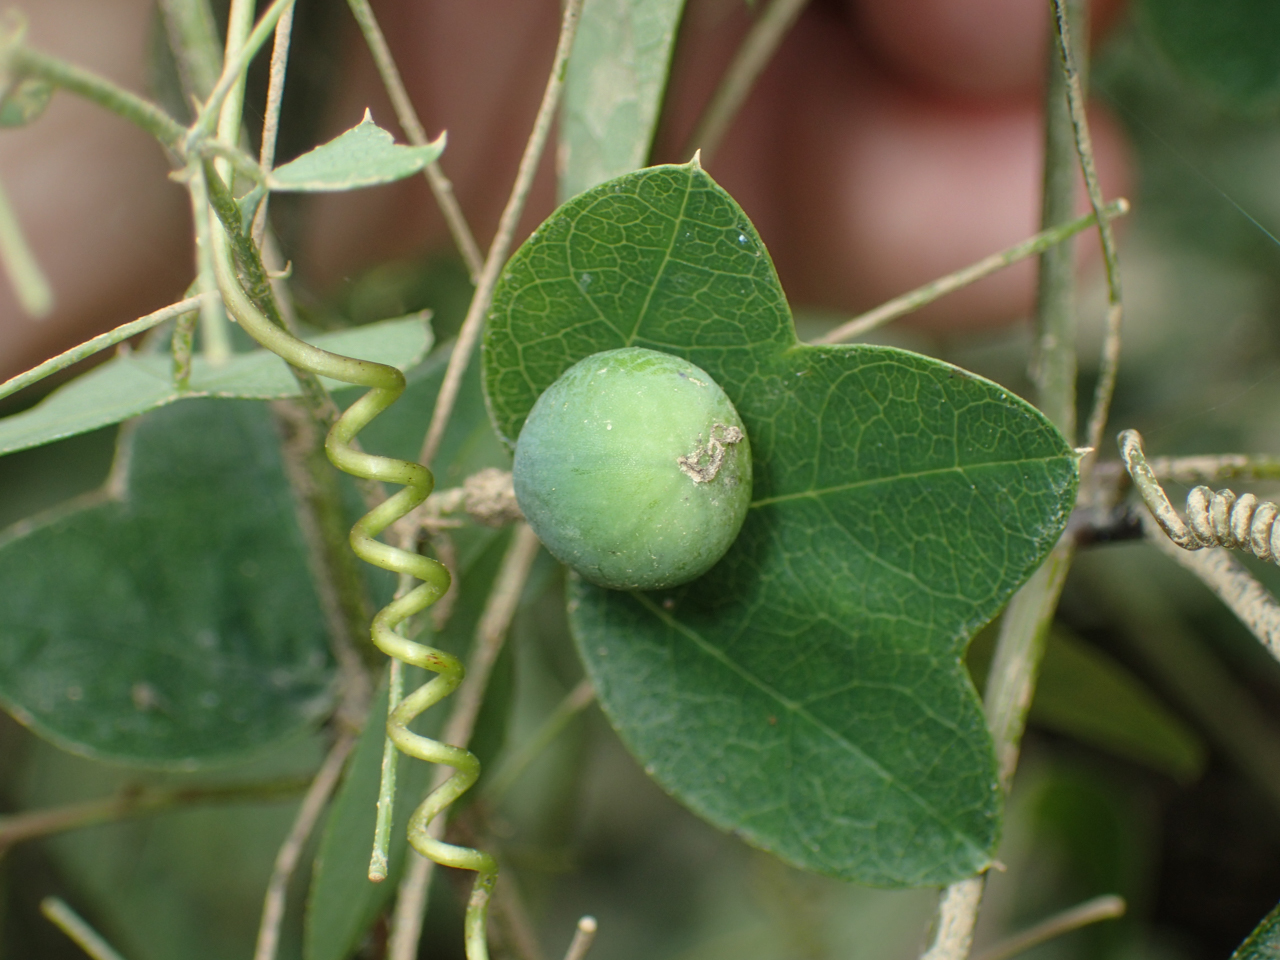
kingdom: Plantae
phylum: Tracheophyta
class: Magnoliopsida
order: Malpighiales
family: Passifloraceae
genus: Passiflora
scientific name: Passiflora lutea
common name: Yellow passionflower
